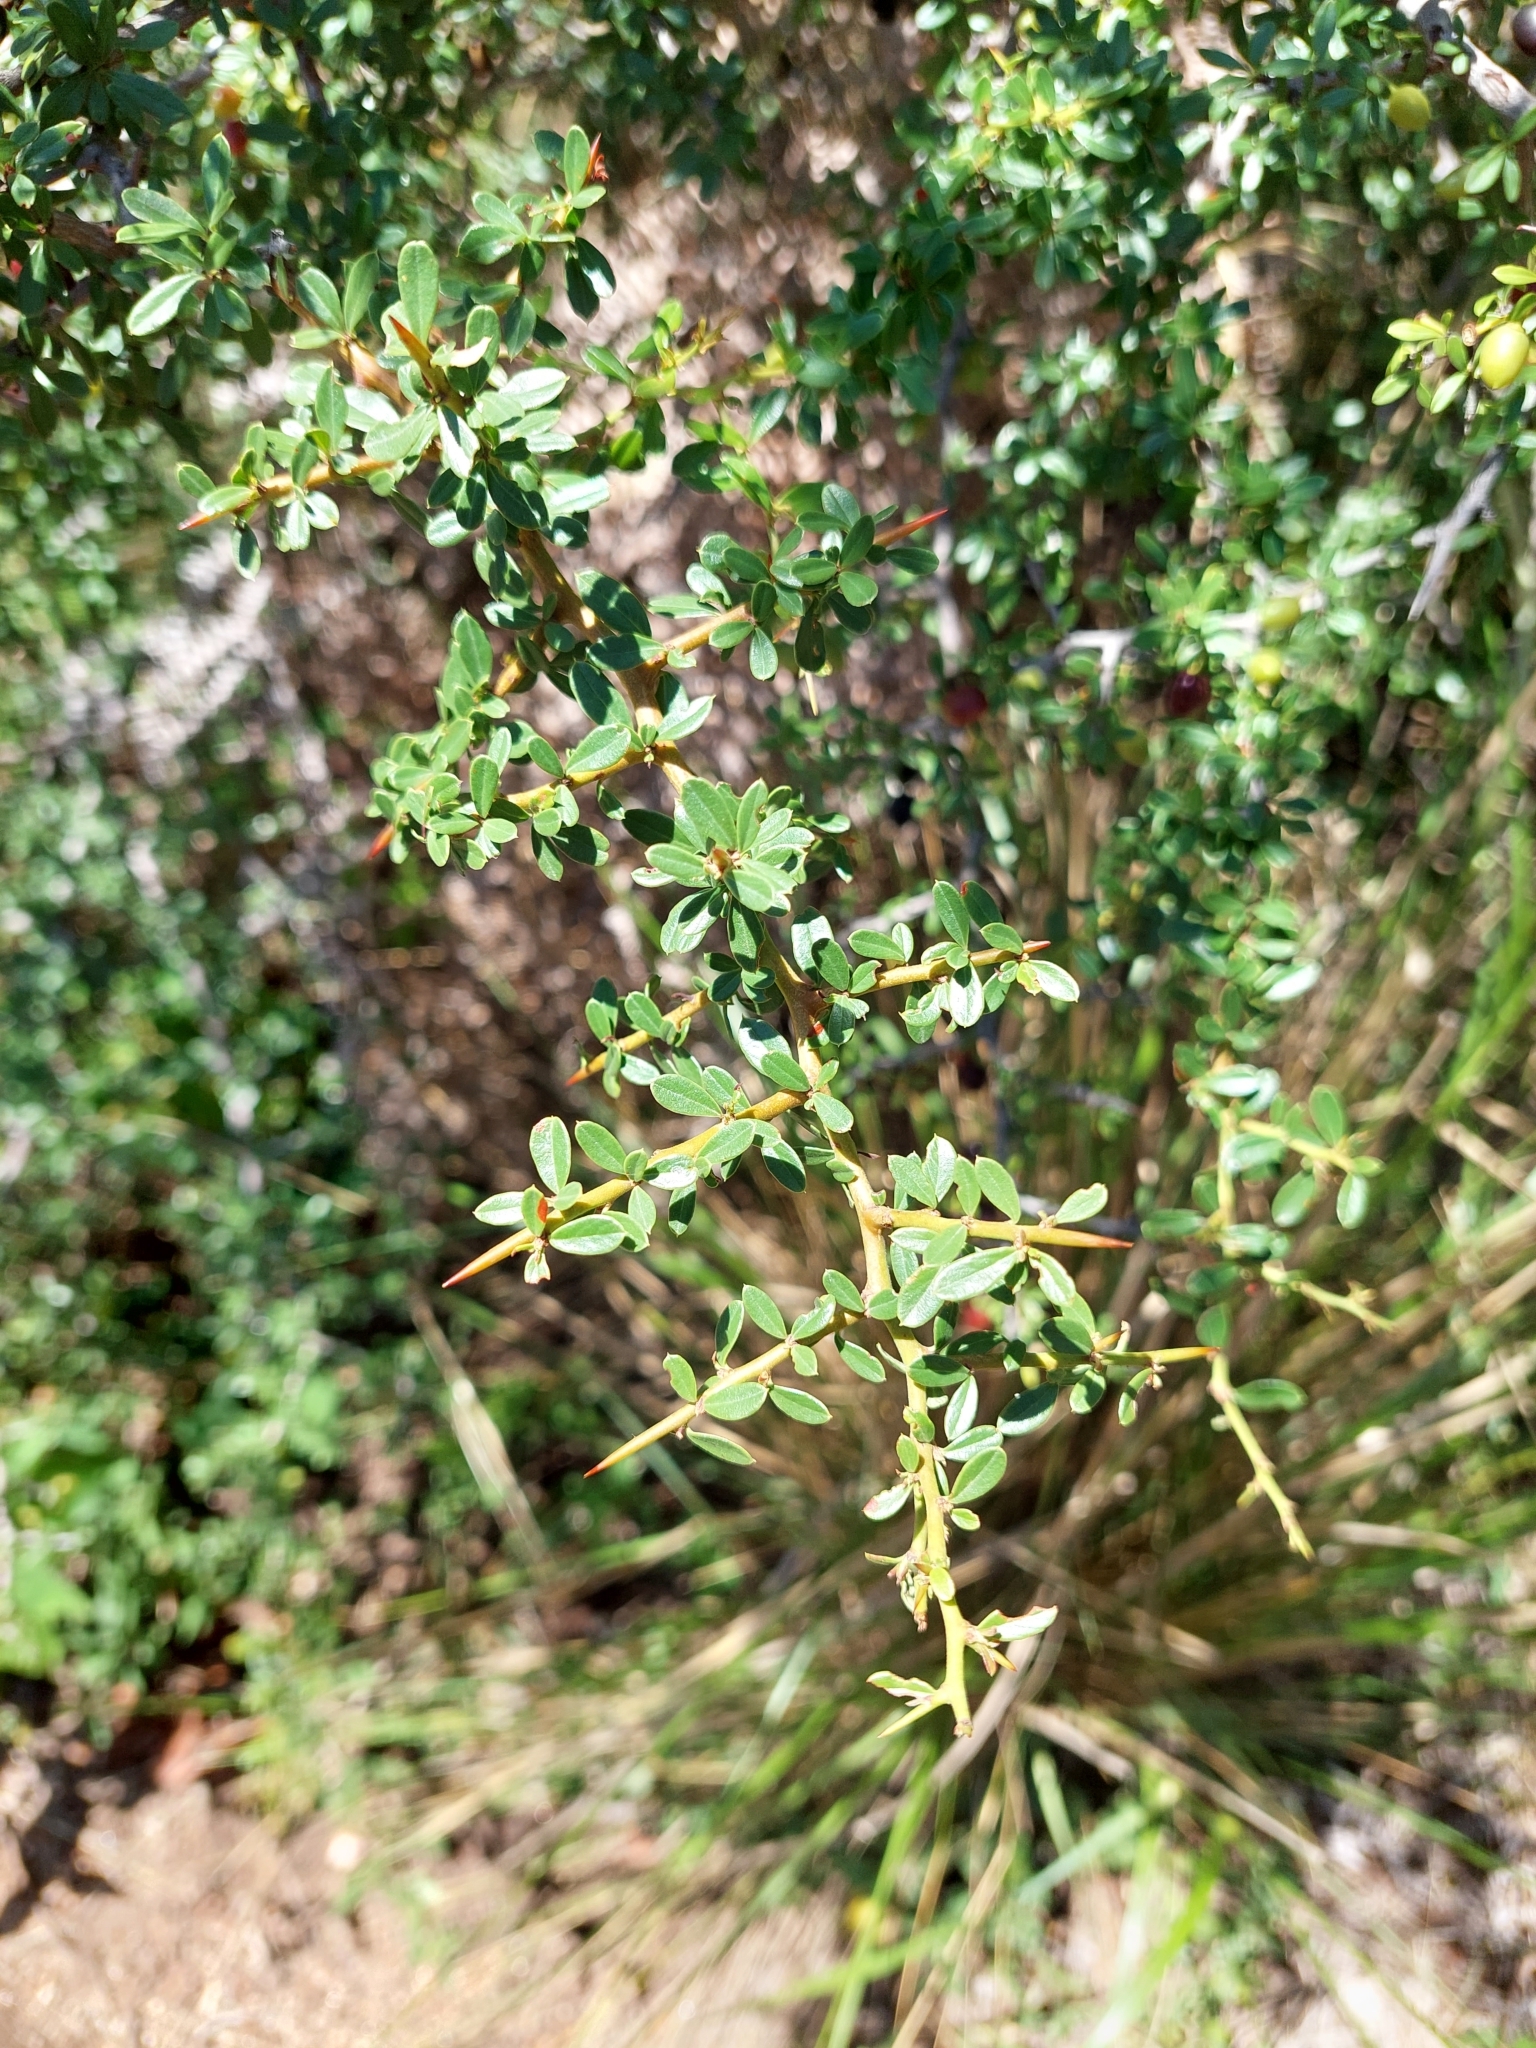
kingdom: Plantae
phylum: Tracheophyta
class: Magnoliopsida
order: Rosales
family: Rhamnaceae
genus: Condalia
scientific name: Condalia microphylla
